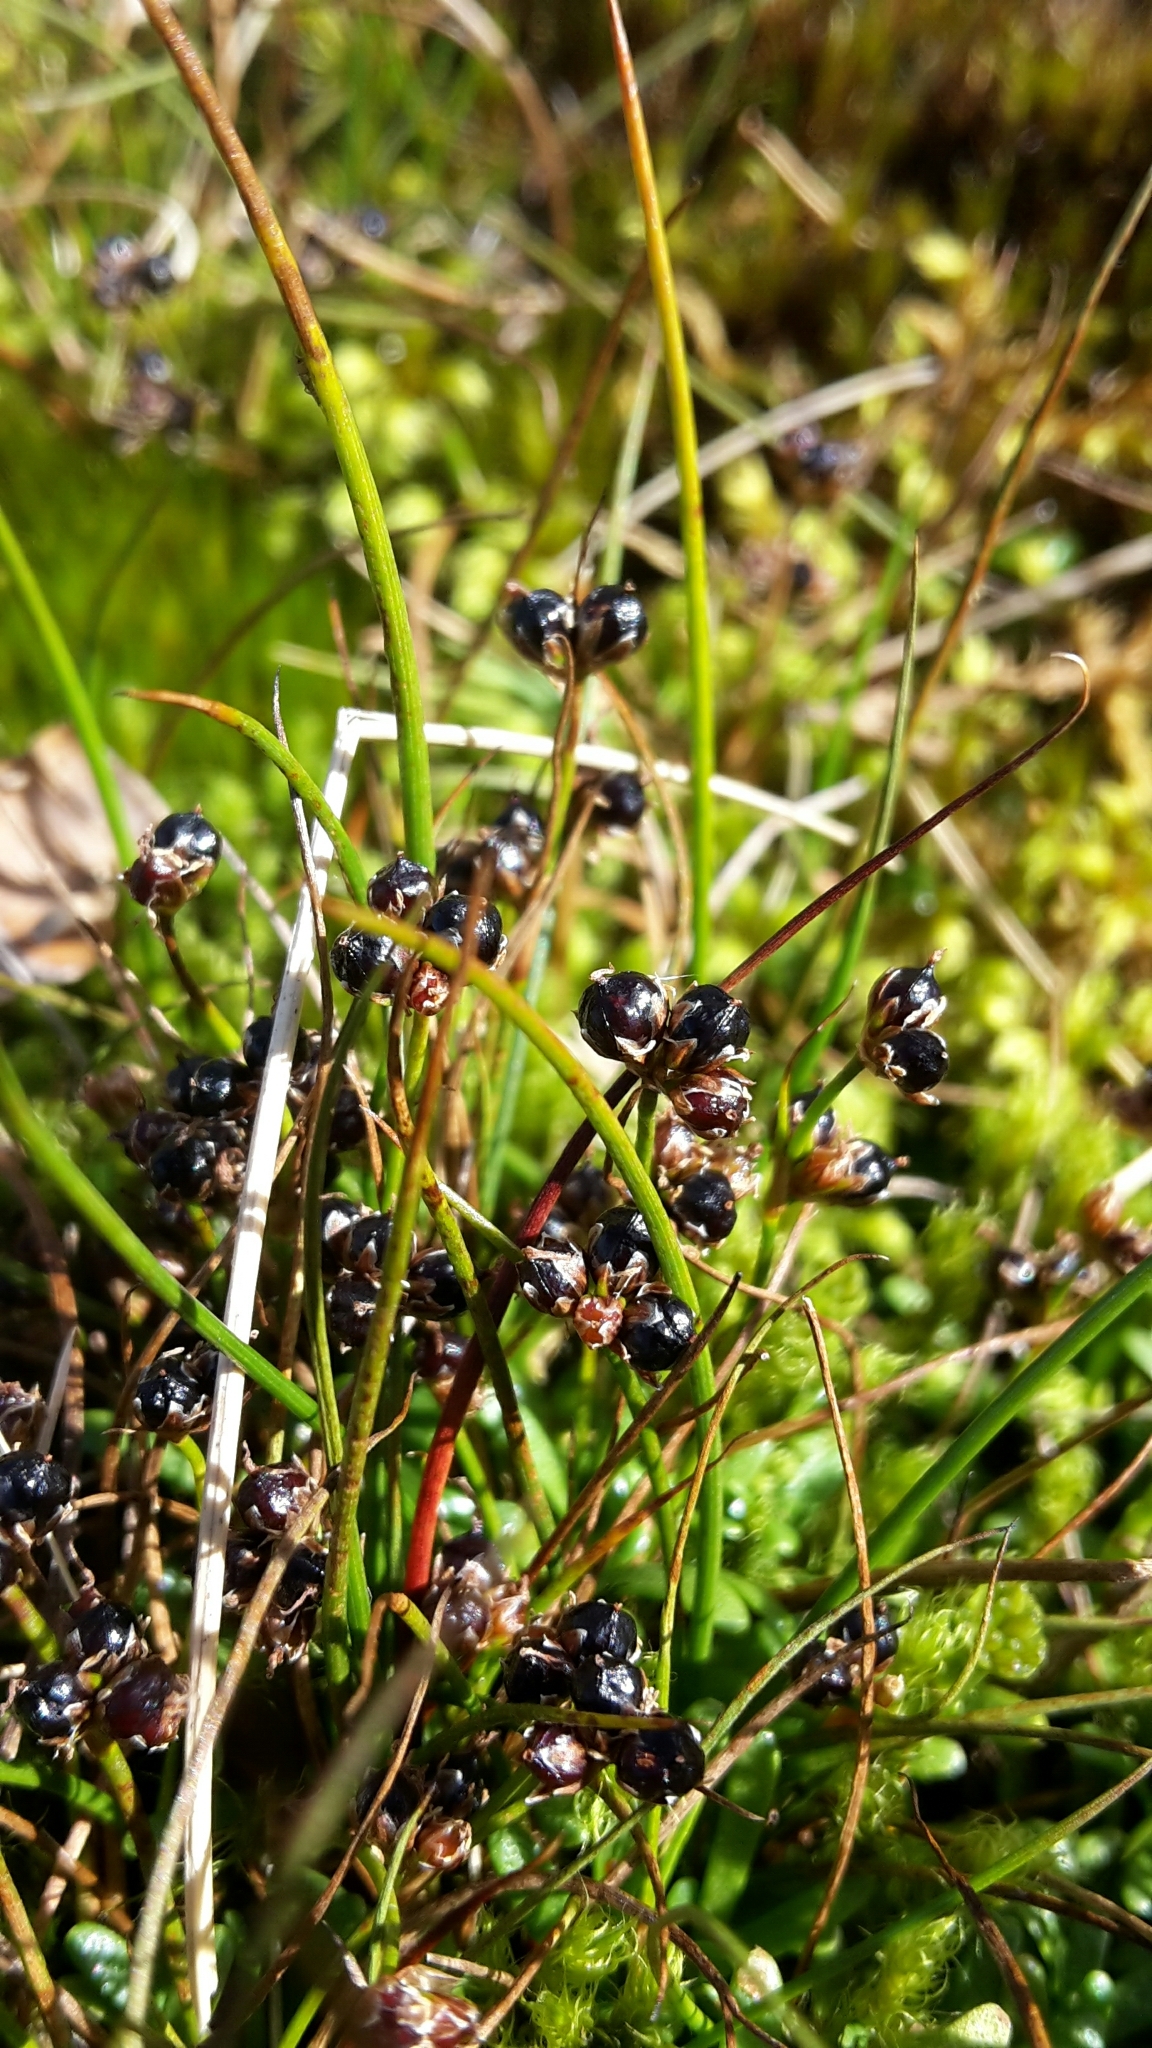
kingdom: Plantae
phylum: Tracheophyta
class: Liliopsida
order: Poales
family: Juncaceae
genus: Juncus
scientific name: Juncus novae-zelandiae
